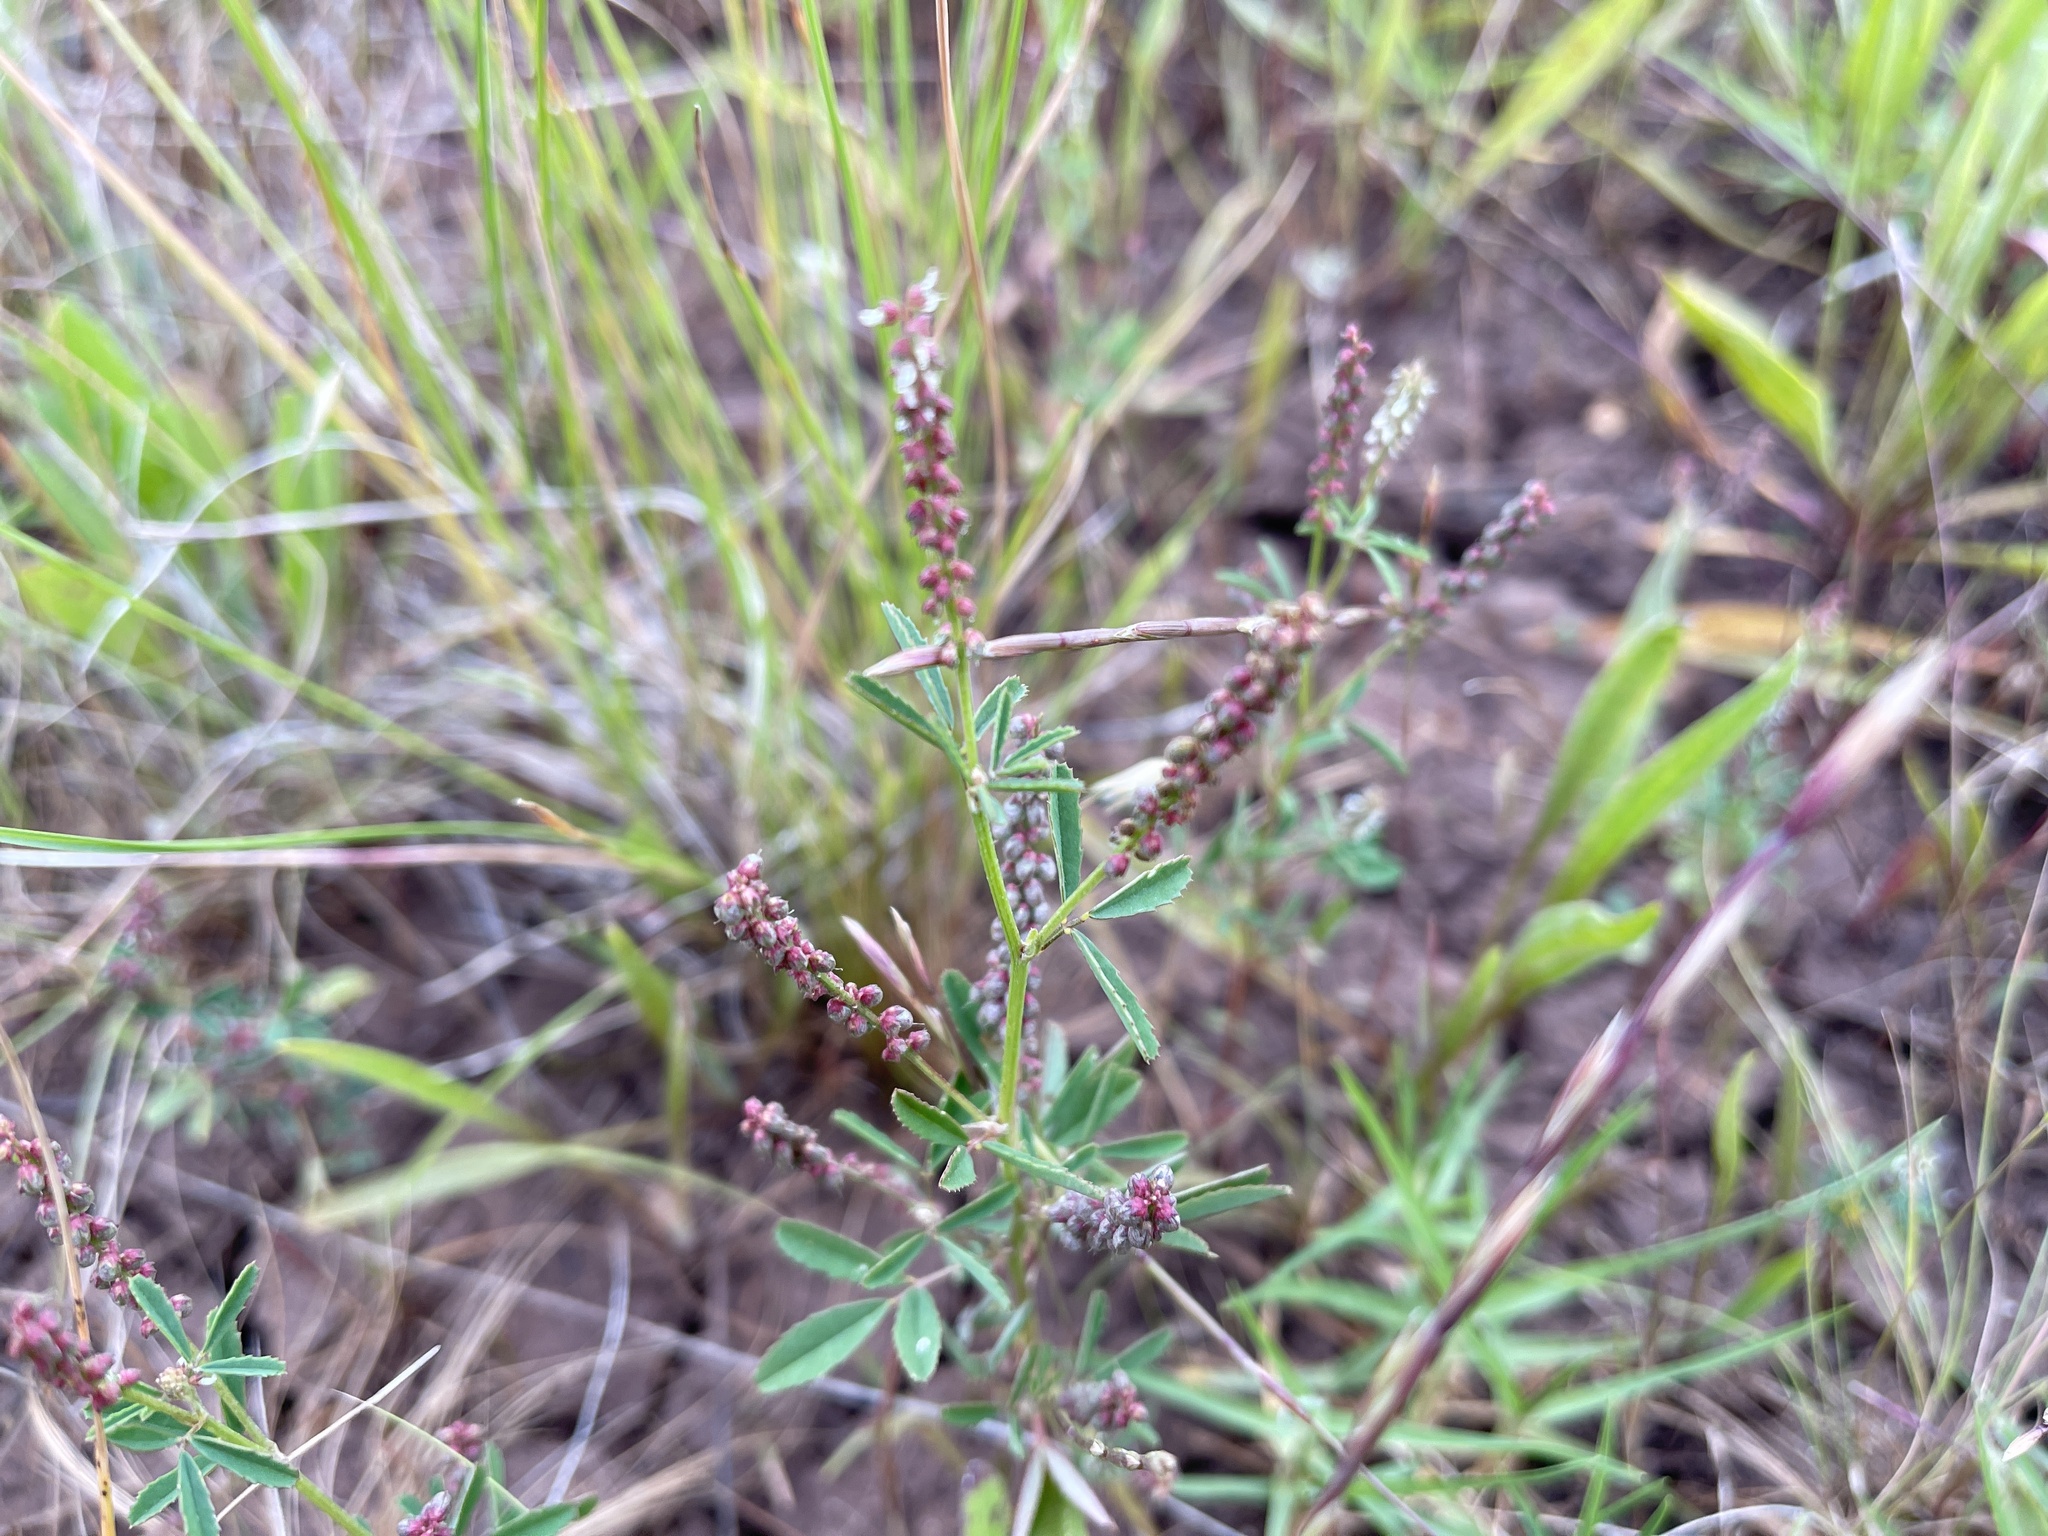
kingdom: Plantae
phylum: Tracheophyta
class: Magnoliopsida
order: Fabales
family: Fabaceae
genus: Melilotus
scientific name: Melilotus indicus
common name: Small melilot
